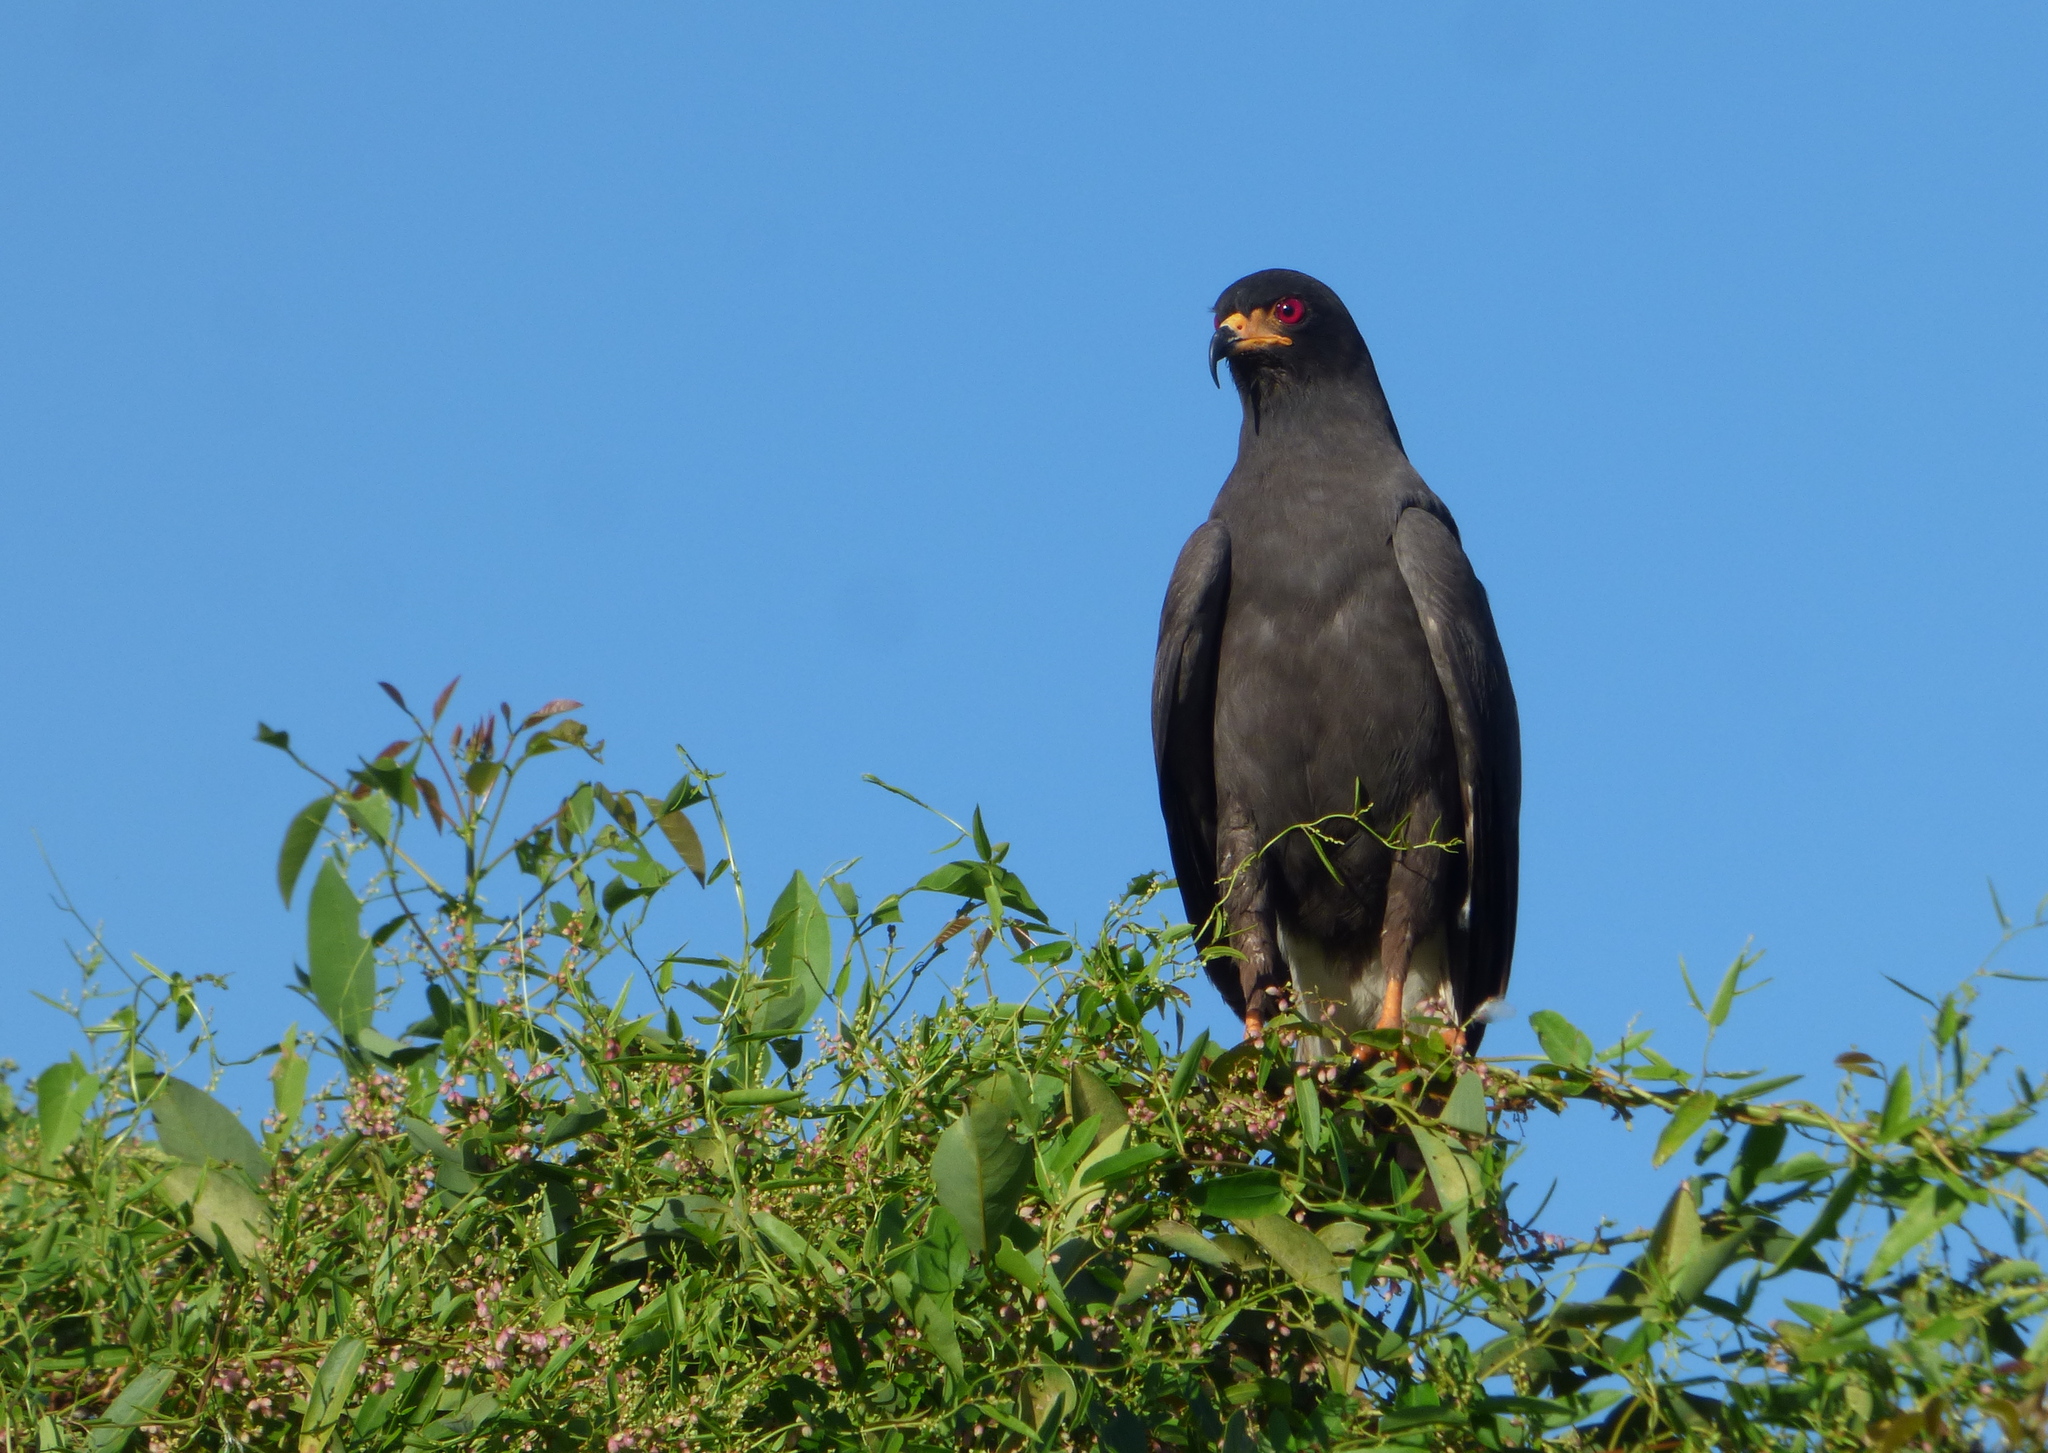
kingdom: Animalia
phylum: Chordata
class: Aves
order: Accipitriformes
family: Accipitridae
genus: Rostrhamus
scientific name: Rostrhamus sociabilis
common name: Snail kite
